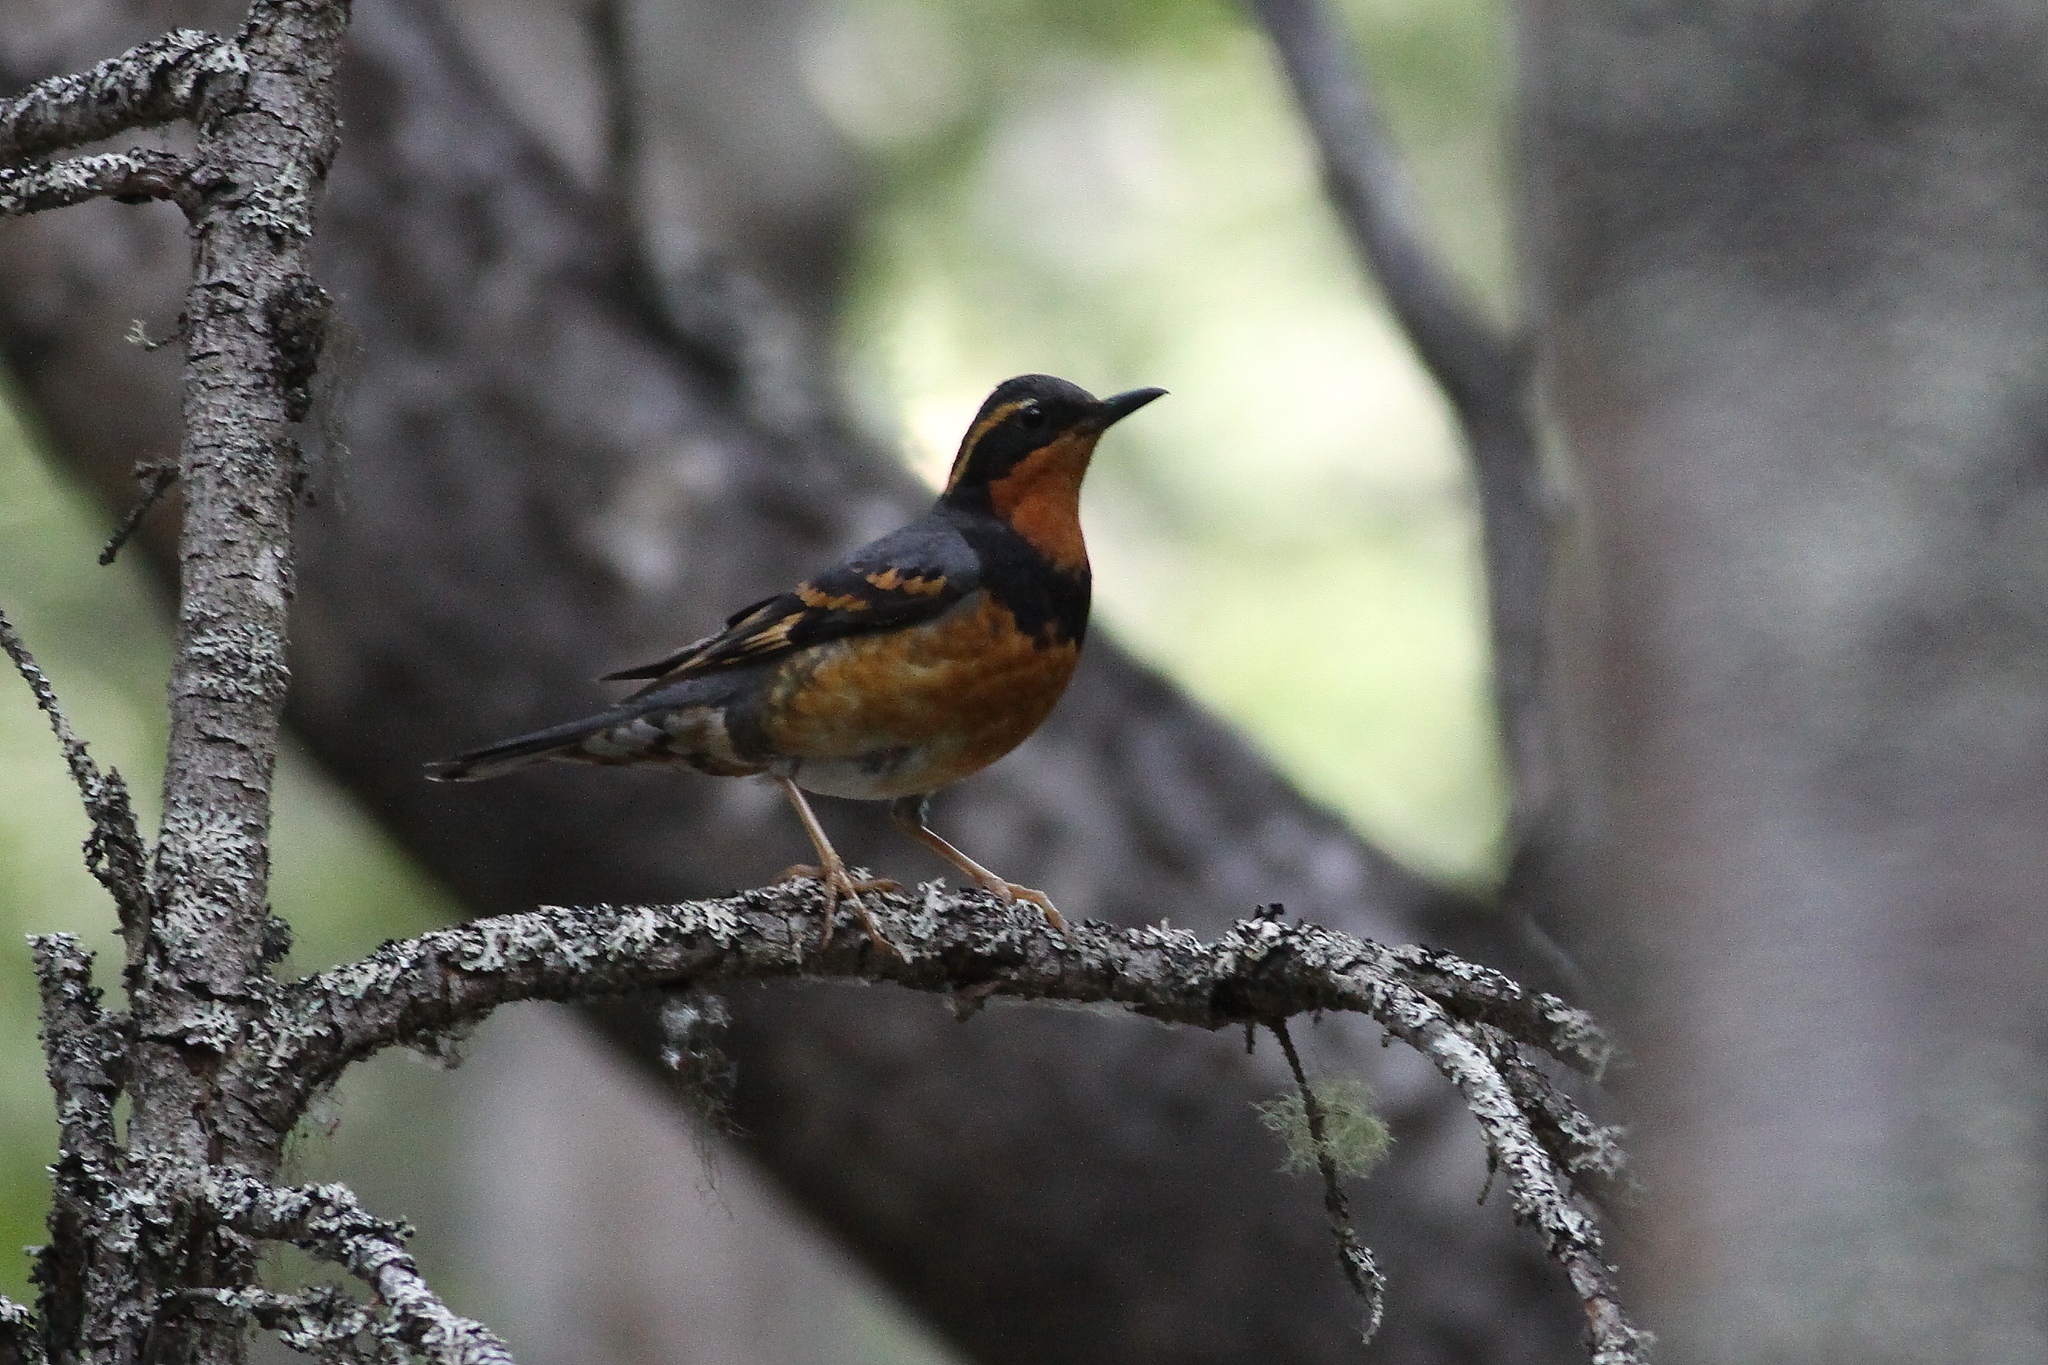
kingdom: Animalia
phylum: Chordata
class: Aves
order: Passeriformes
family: Turdidae
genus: Ixoreus
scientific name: Ixoreus naevius
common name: Varied thrush
